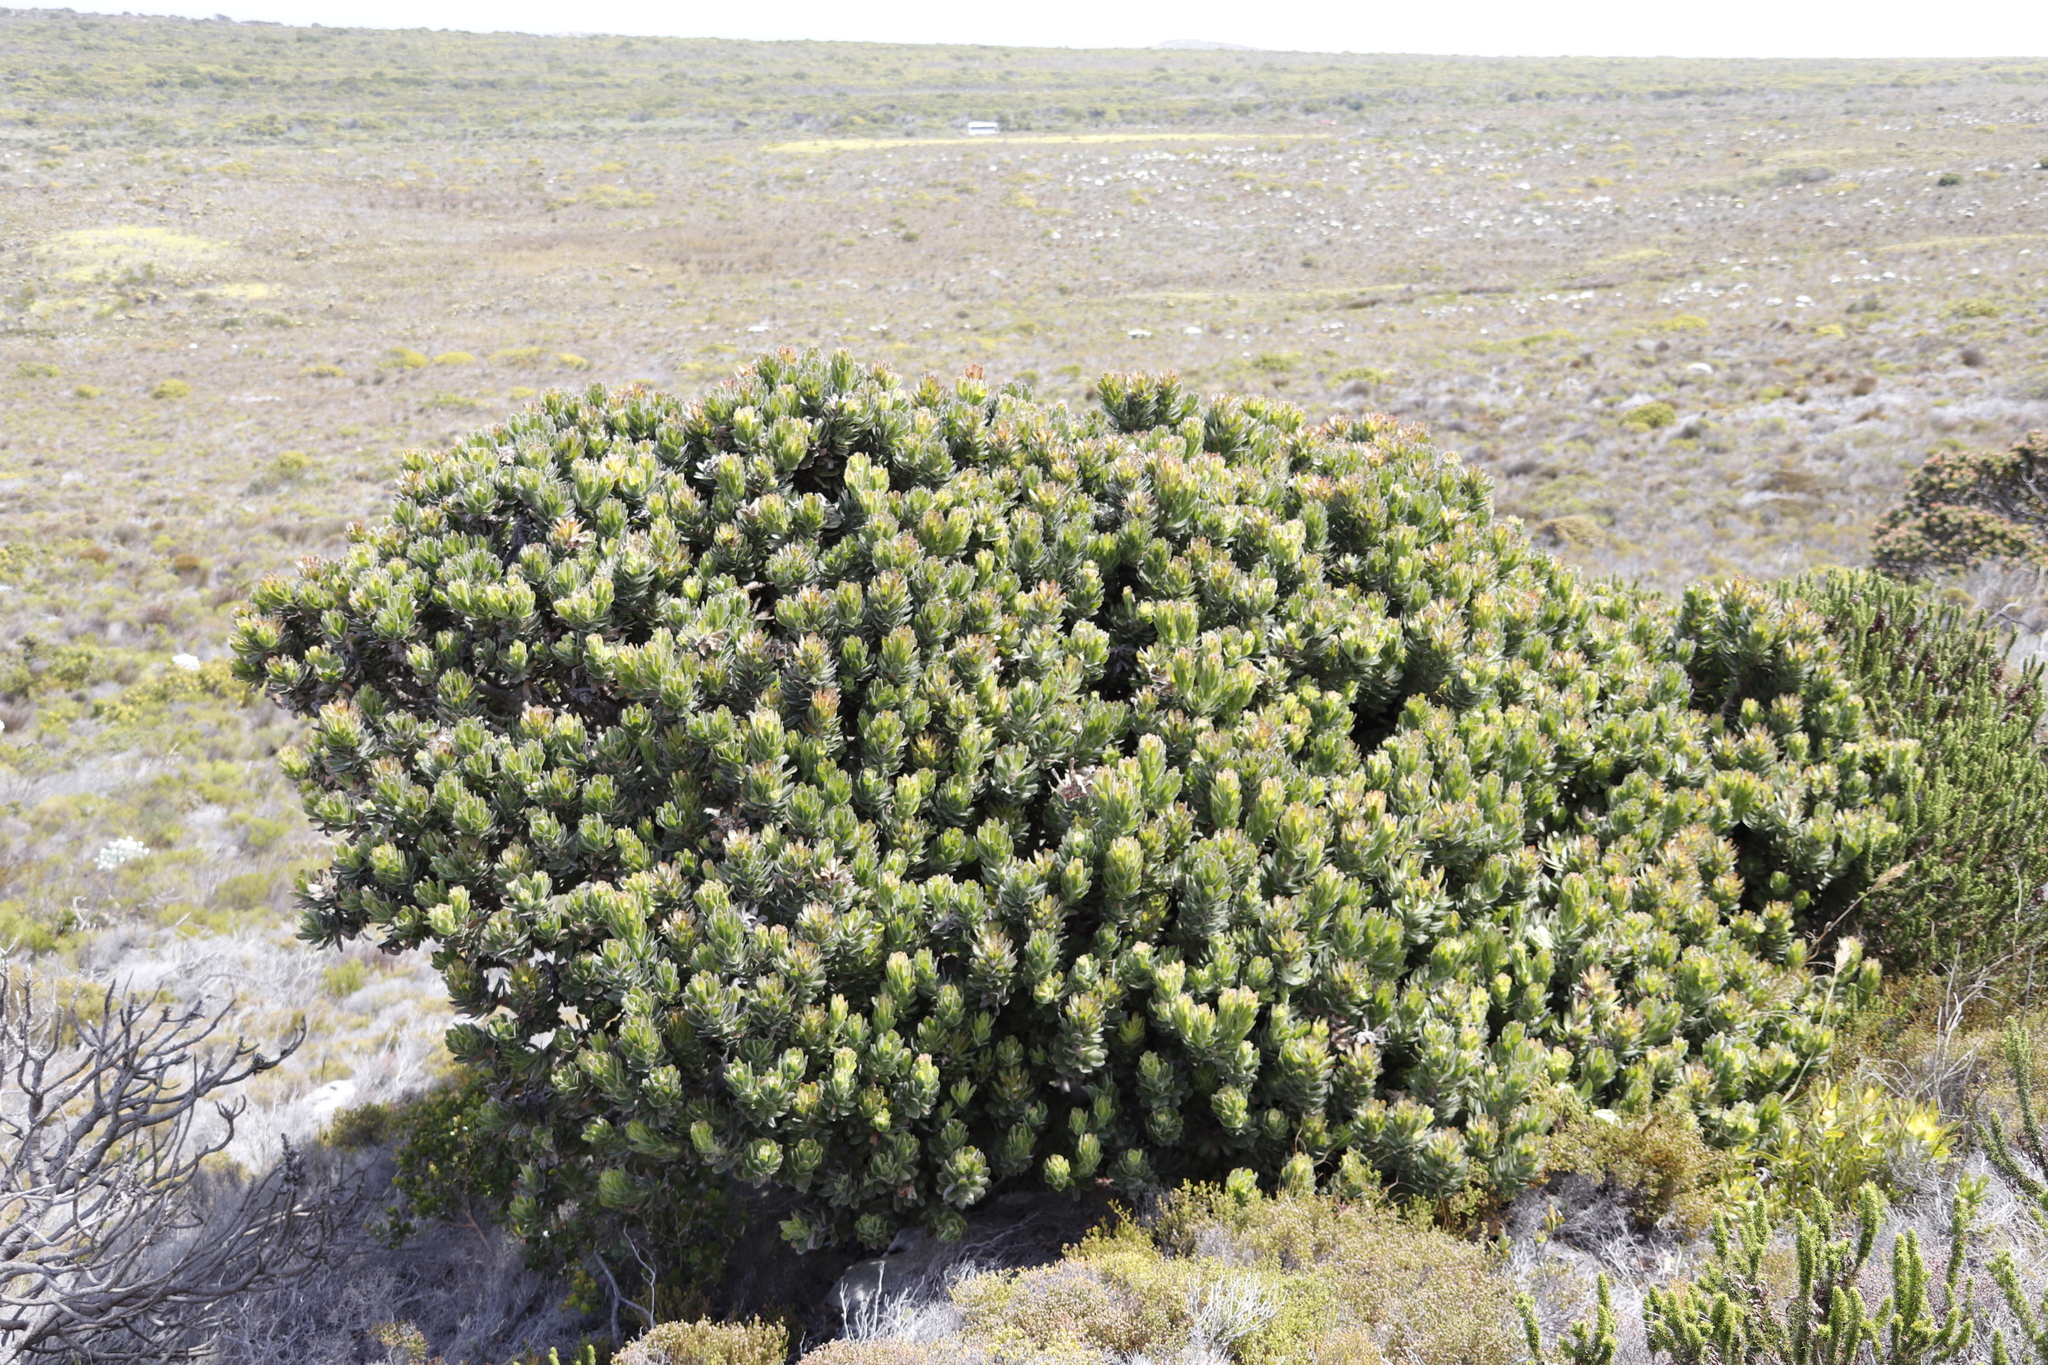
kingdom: Plantae
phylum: Tracheophyta
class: Magnoliopsida
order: Proteales
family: Proteaceae
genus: Mimetes
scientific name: Mimetes fimbriifolius
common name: Fringed bottlebrush
